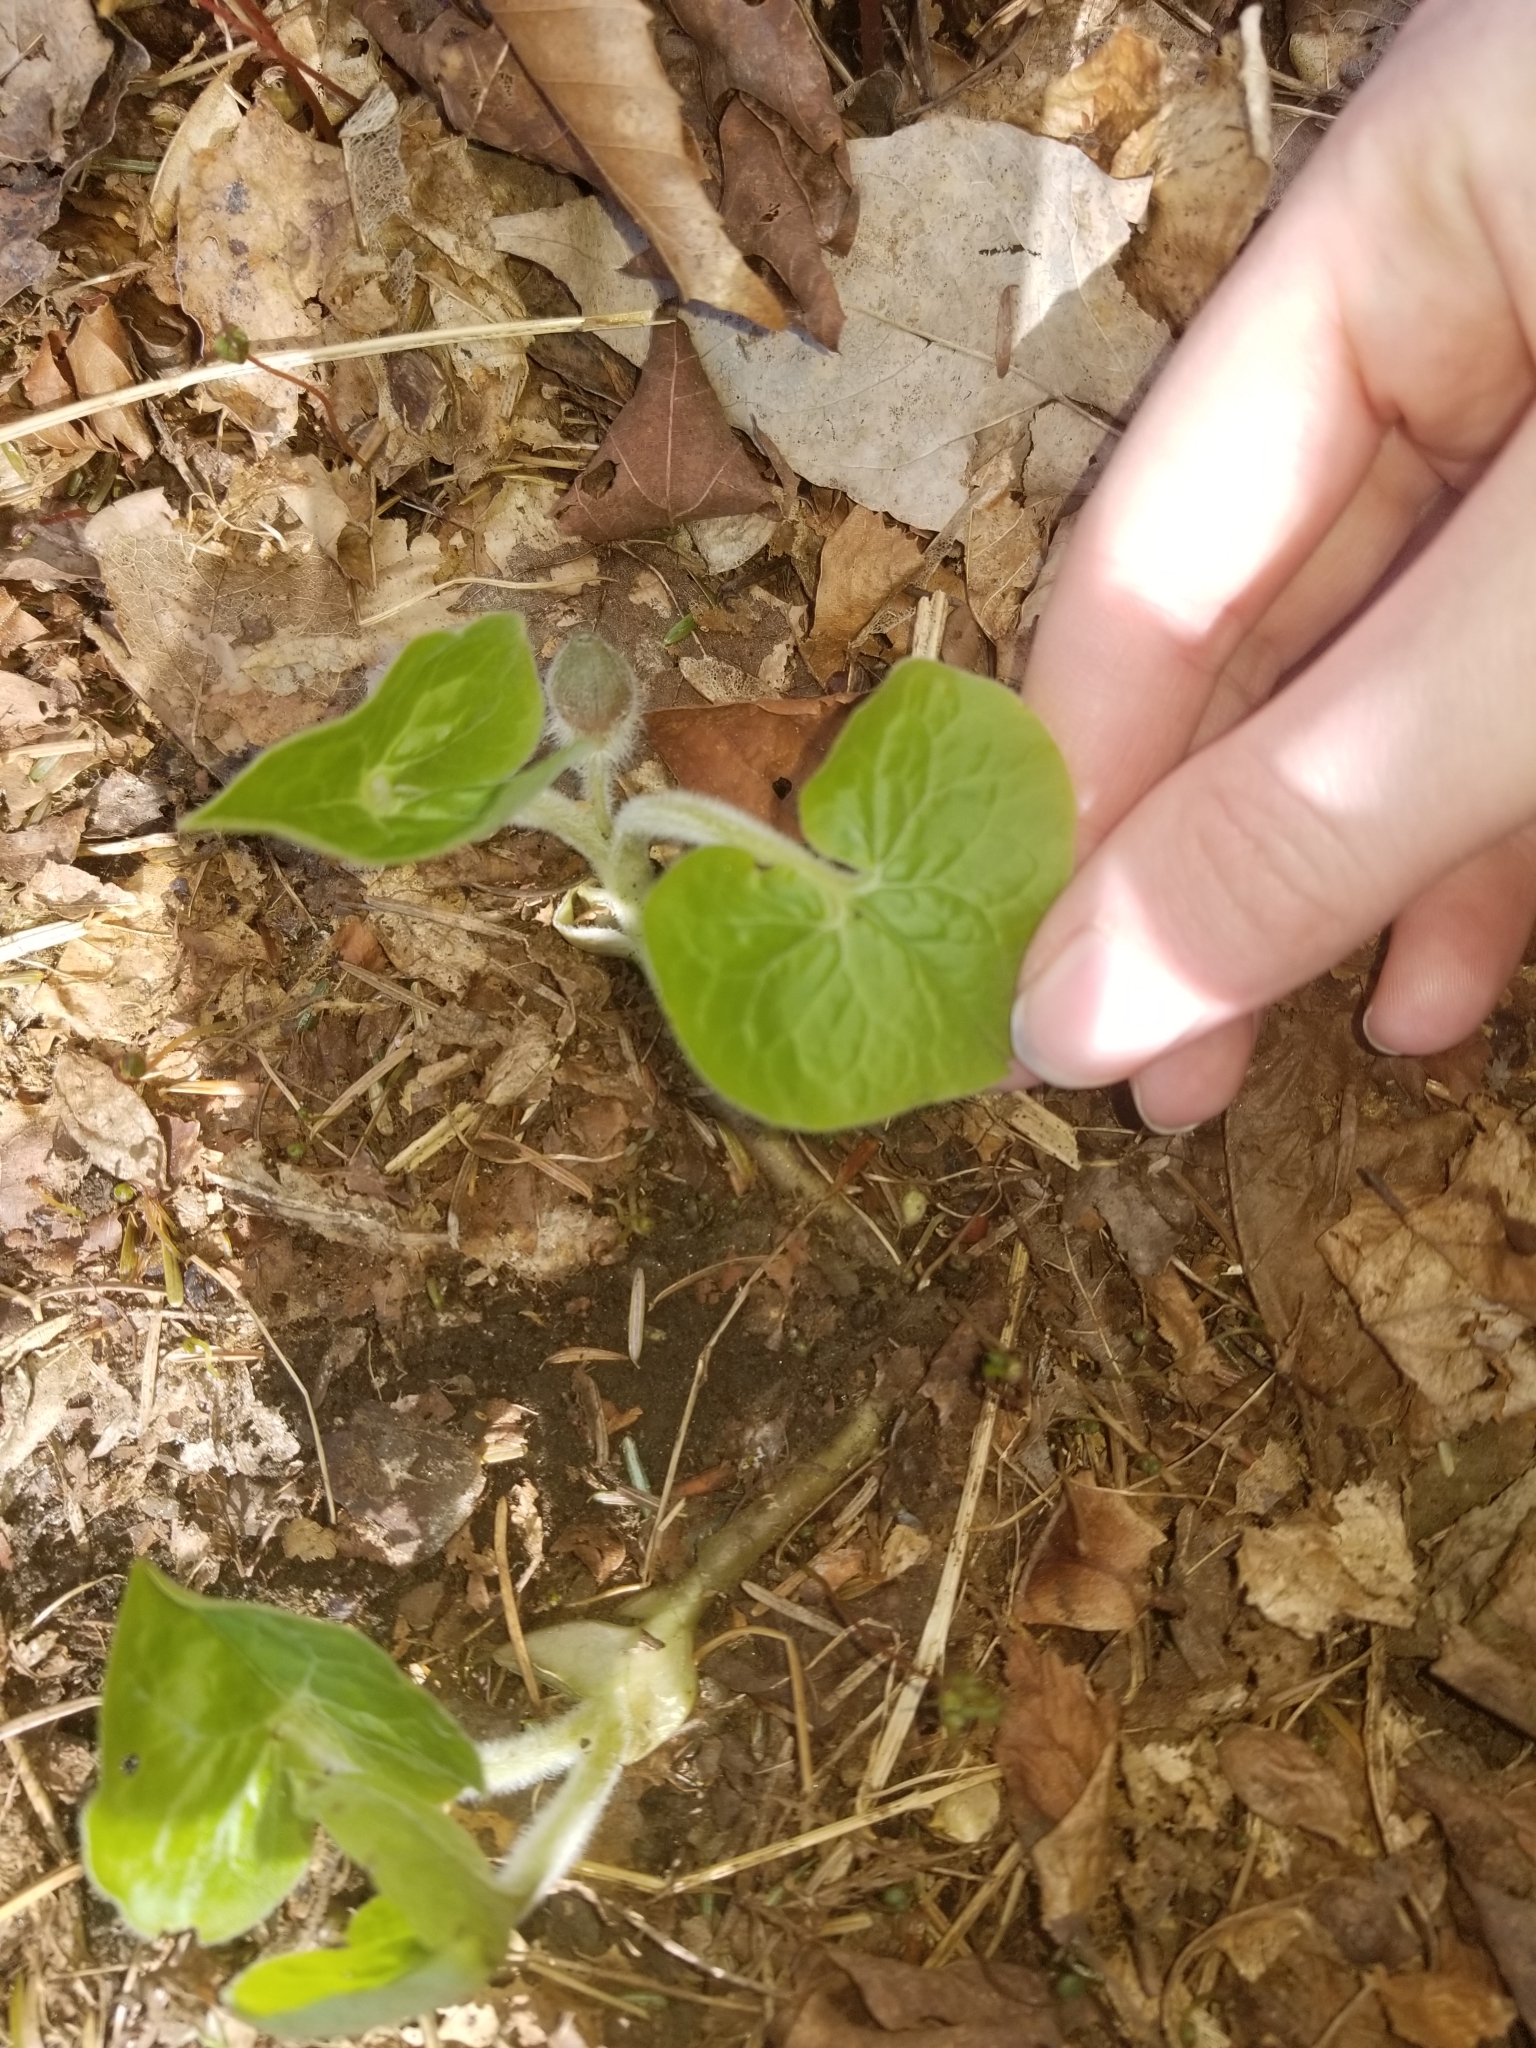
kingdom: Plantae
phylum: Tracheophyta
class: Magnoliopsida
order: Piperales
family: Aristolochiaceae
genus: Asarum
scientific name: Asarum canadense
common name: Wild ginger
